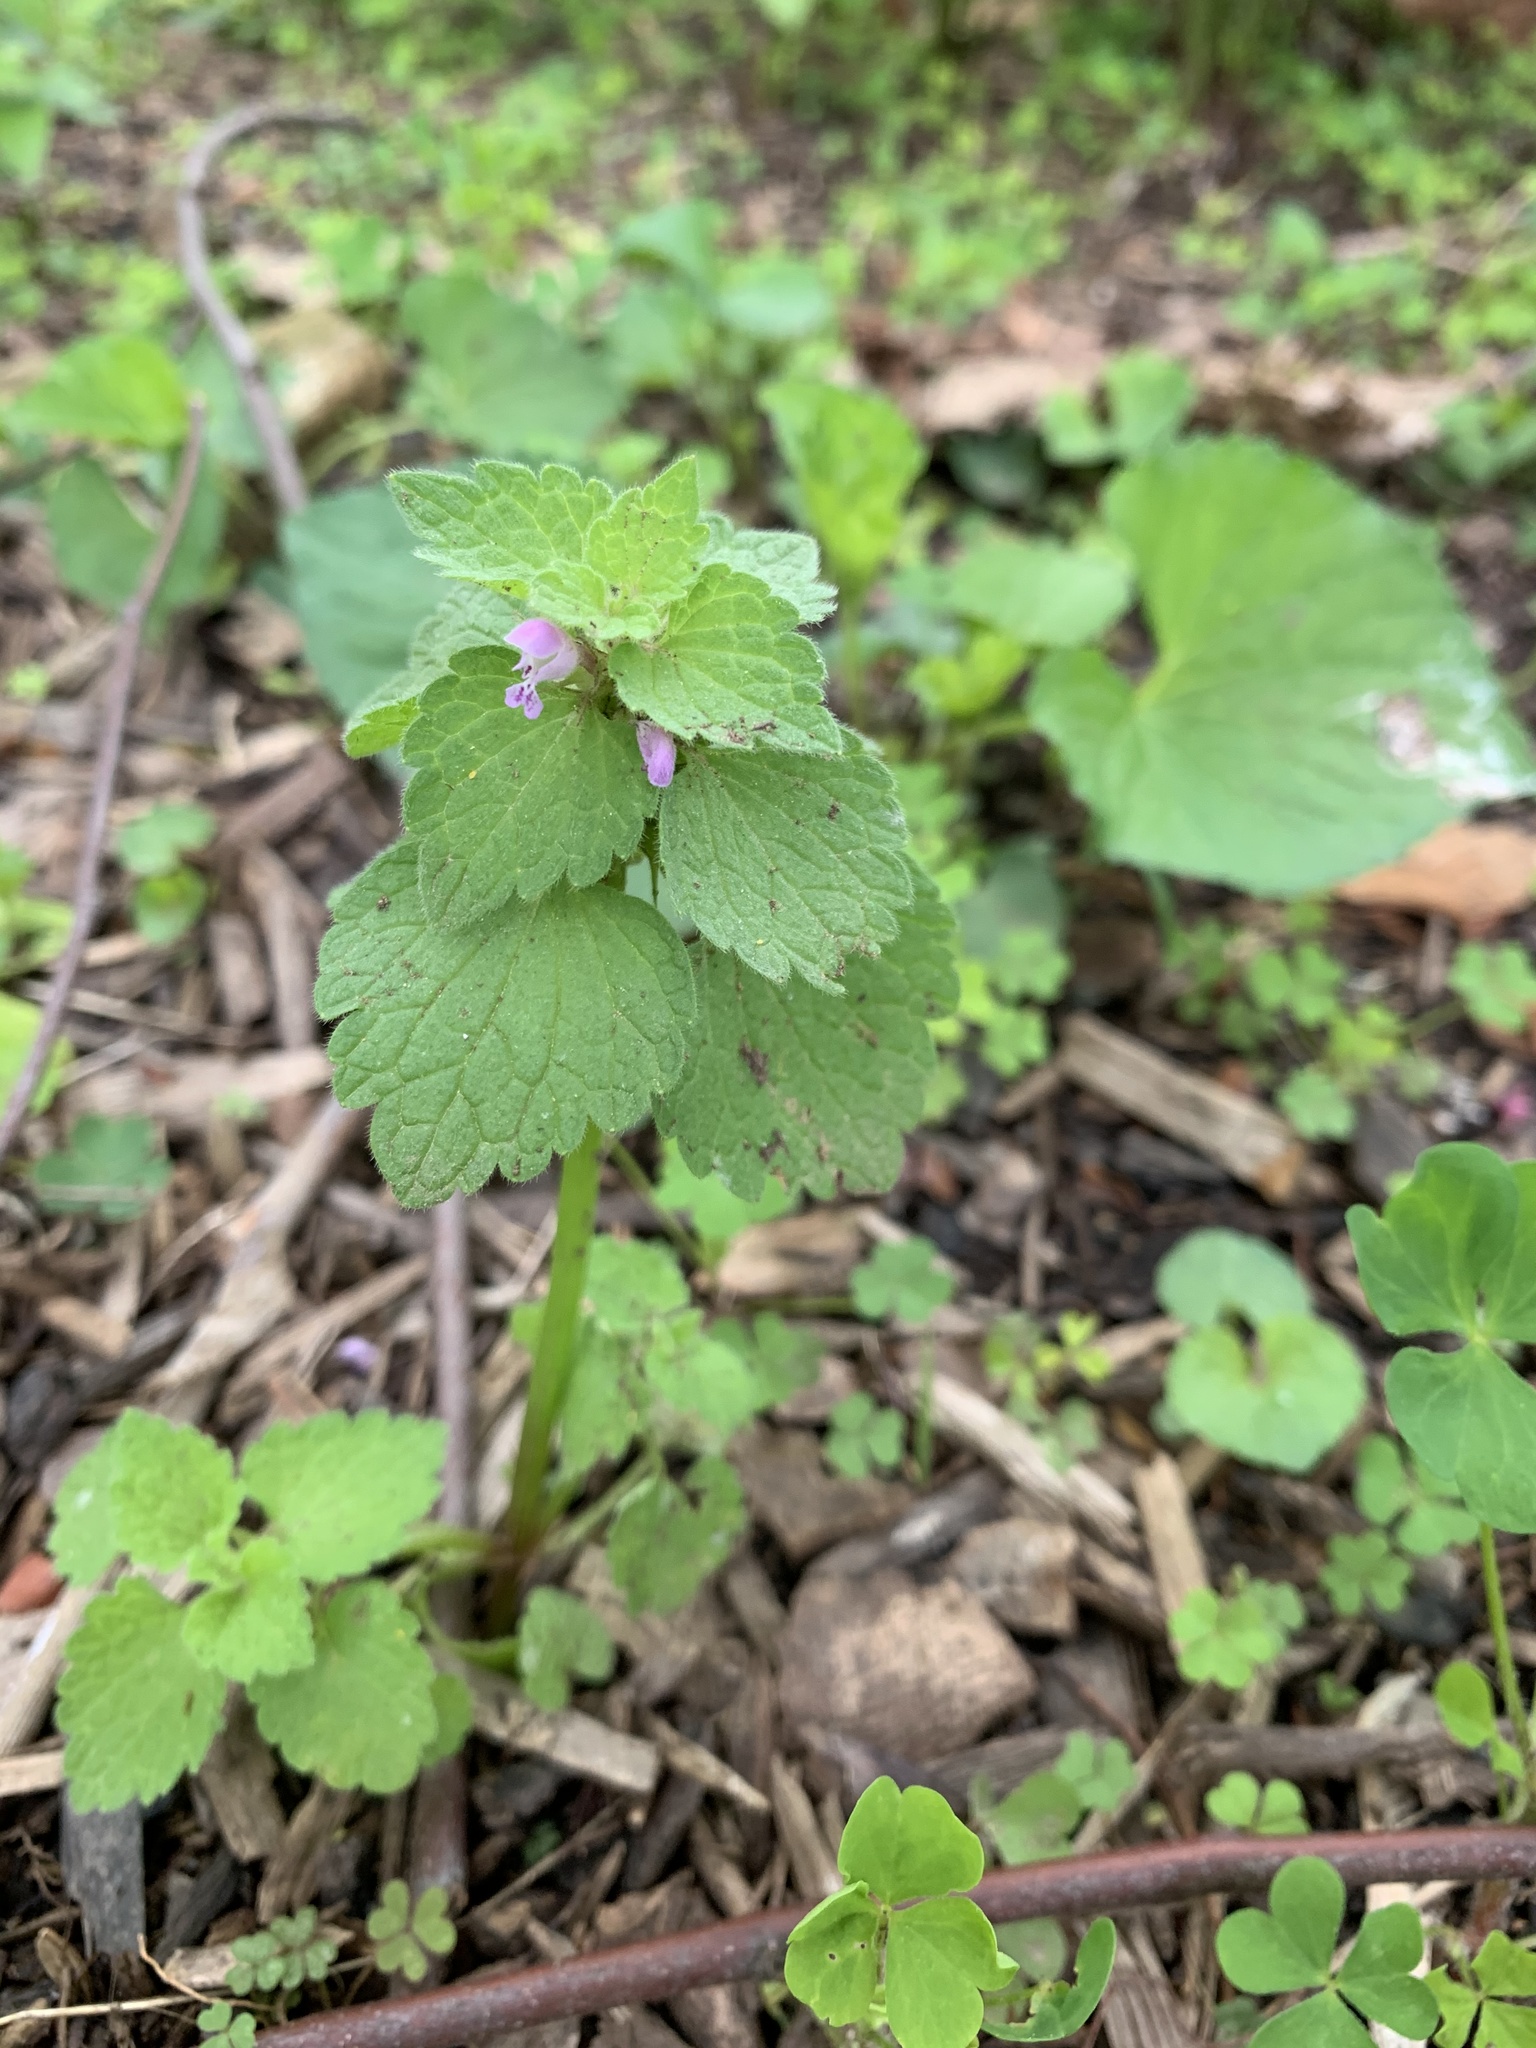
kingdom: Plantae
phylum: Tracheophyta
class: Magnoliopsida
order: Lamiales
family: Lamiaceae
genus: Lamium
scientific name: Lamium purpureum
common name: Red dead-nettle
